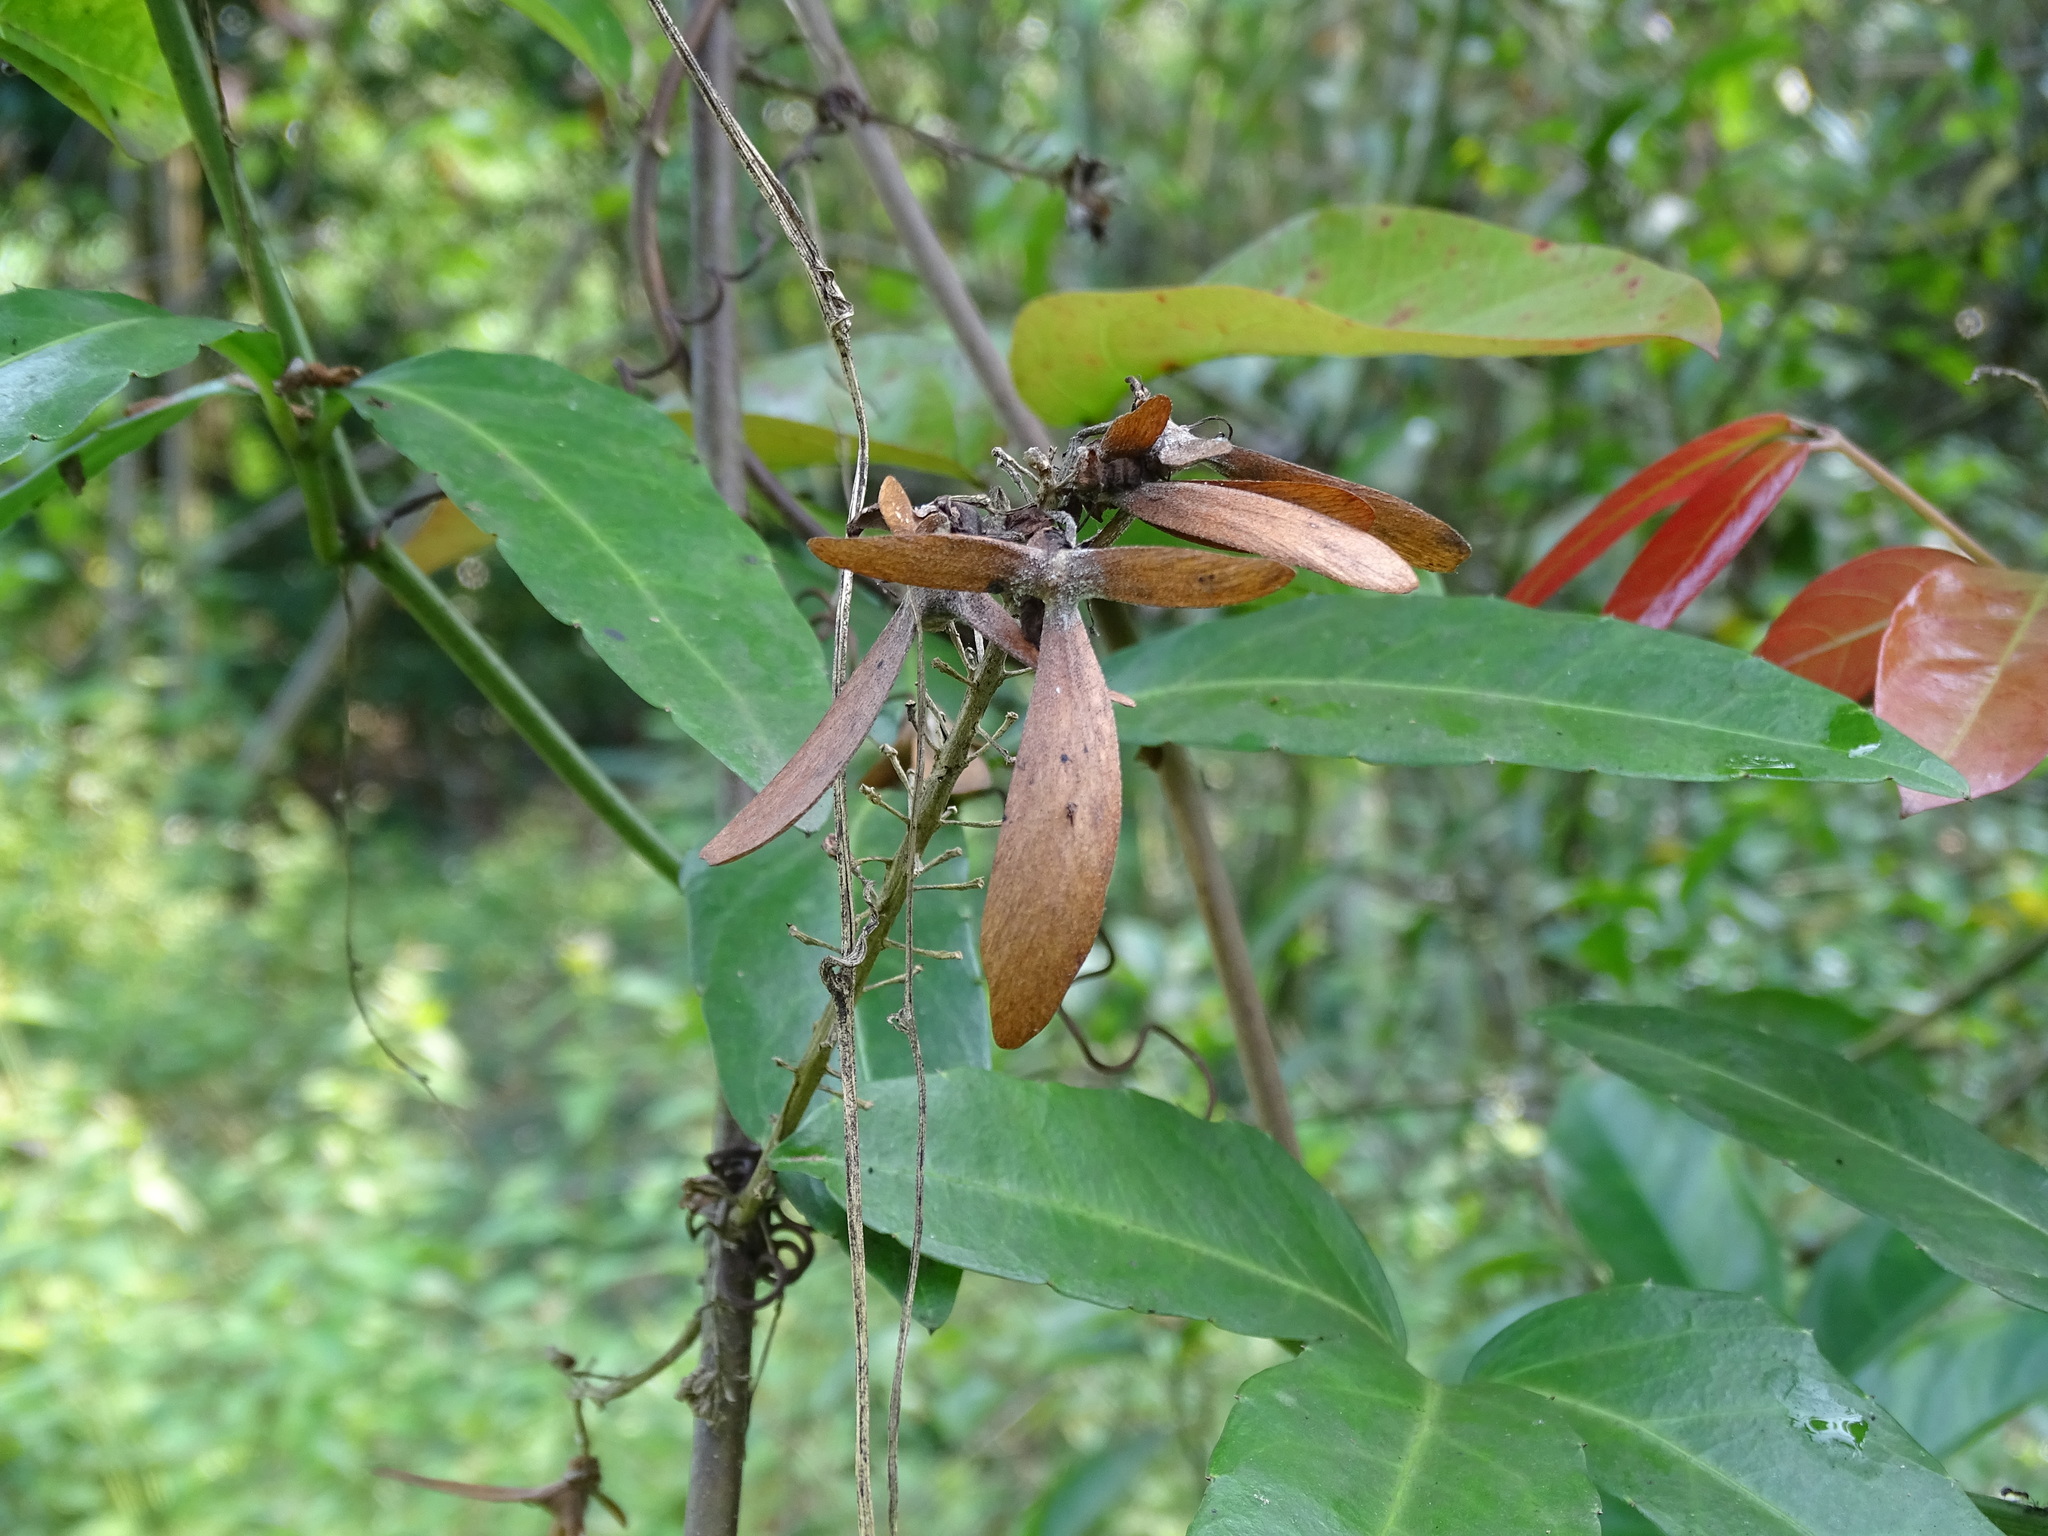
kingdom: Plantae
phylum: Tracheophyta
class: Magnoliopsida
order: Malpighiales
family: Malpighiaceae
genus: Hiptage
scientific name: Hiptage benghalensis
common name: Hiptage
